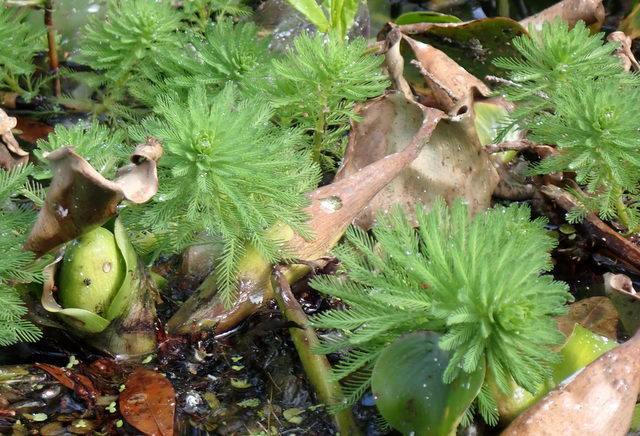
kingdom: Plantae
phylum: Tracheophyta
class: Magnoliopsida
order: Saxifragales
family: Haloragaceae
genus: Myriophyllum
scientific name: Myriophyllum aquaticum
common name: Parrot's feather
